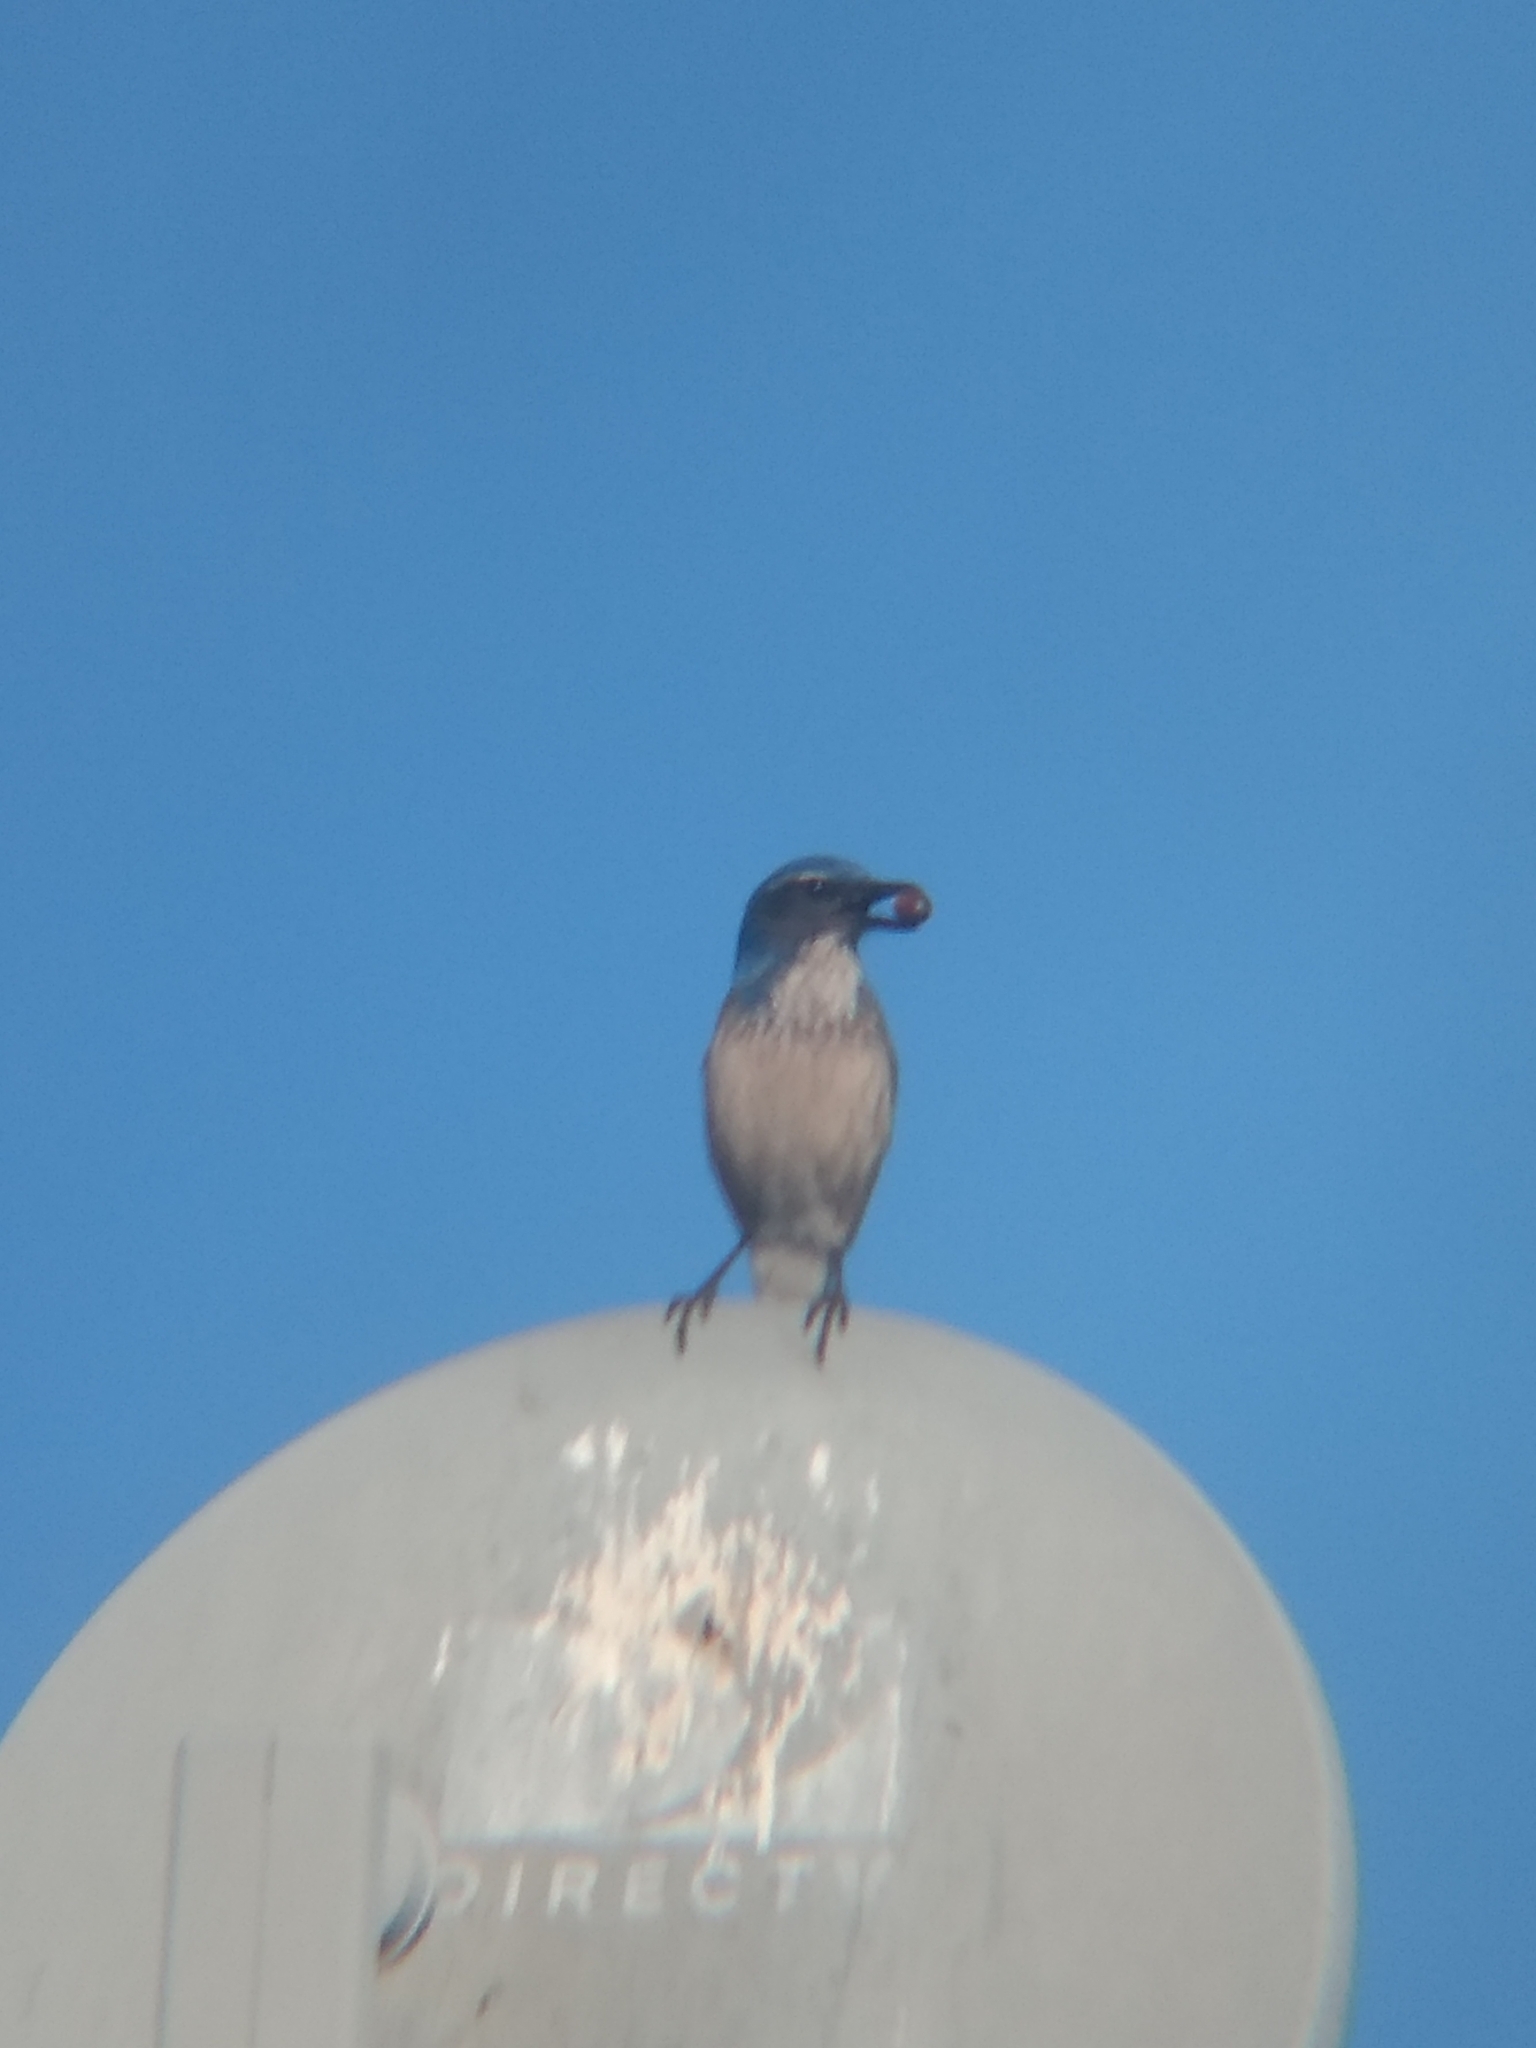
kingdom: Animalia
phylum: Chordata
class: Aves
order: Passeriformes
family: Corvidae
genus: Aphelocoma
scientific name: Aphelocoma californica
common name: California scrub-jay
